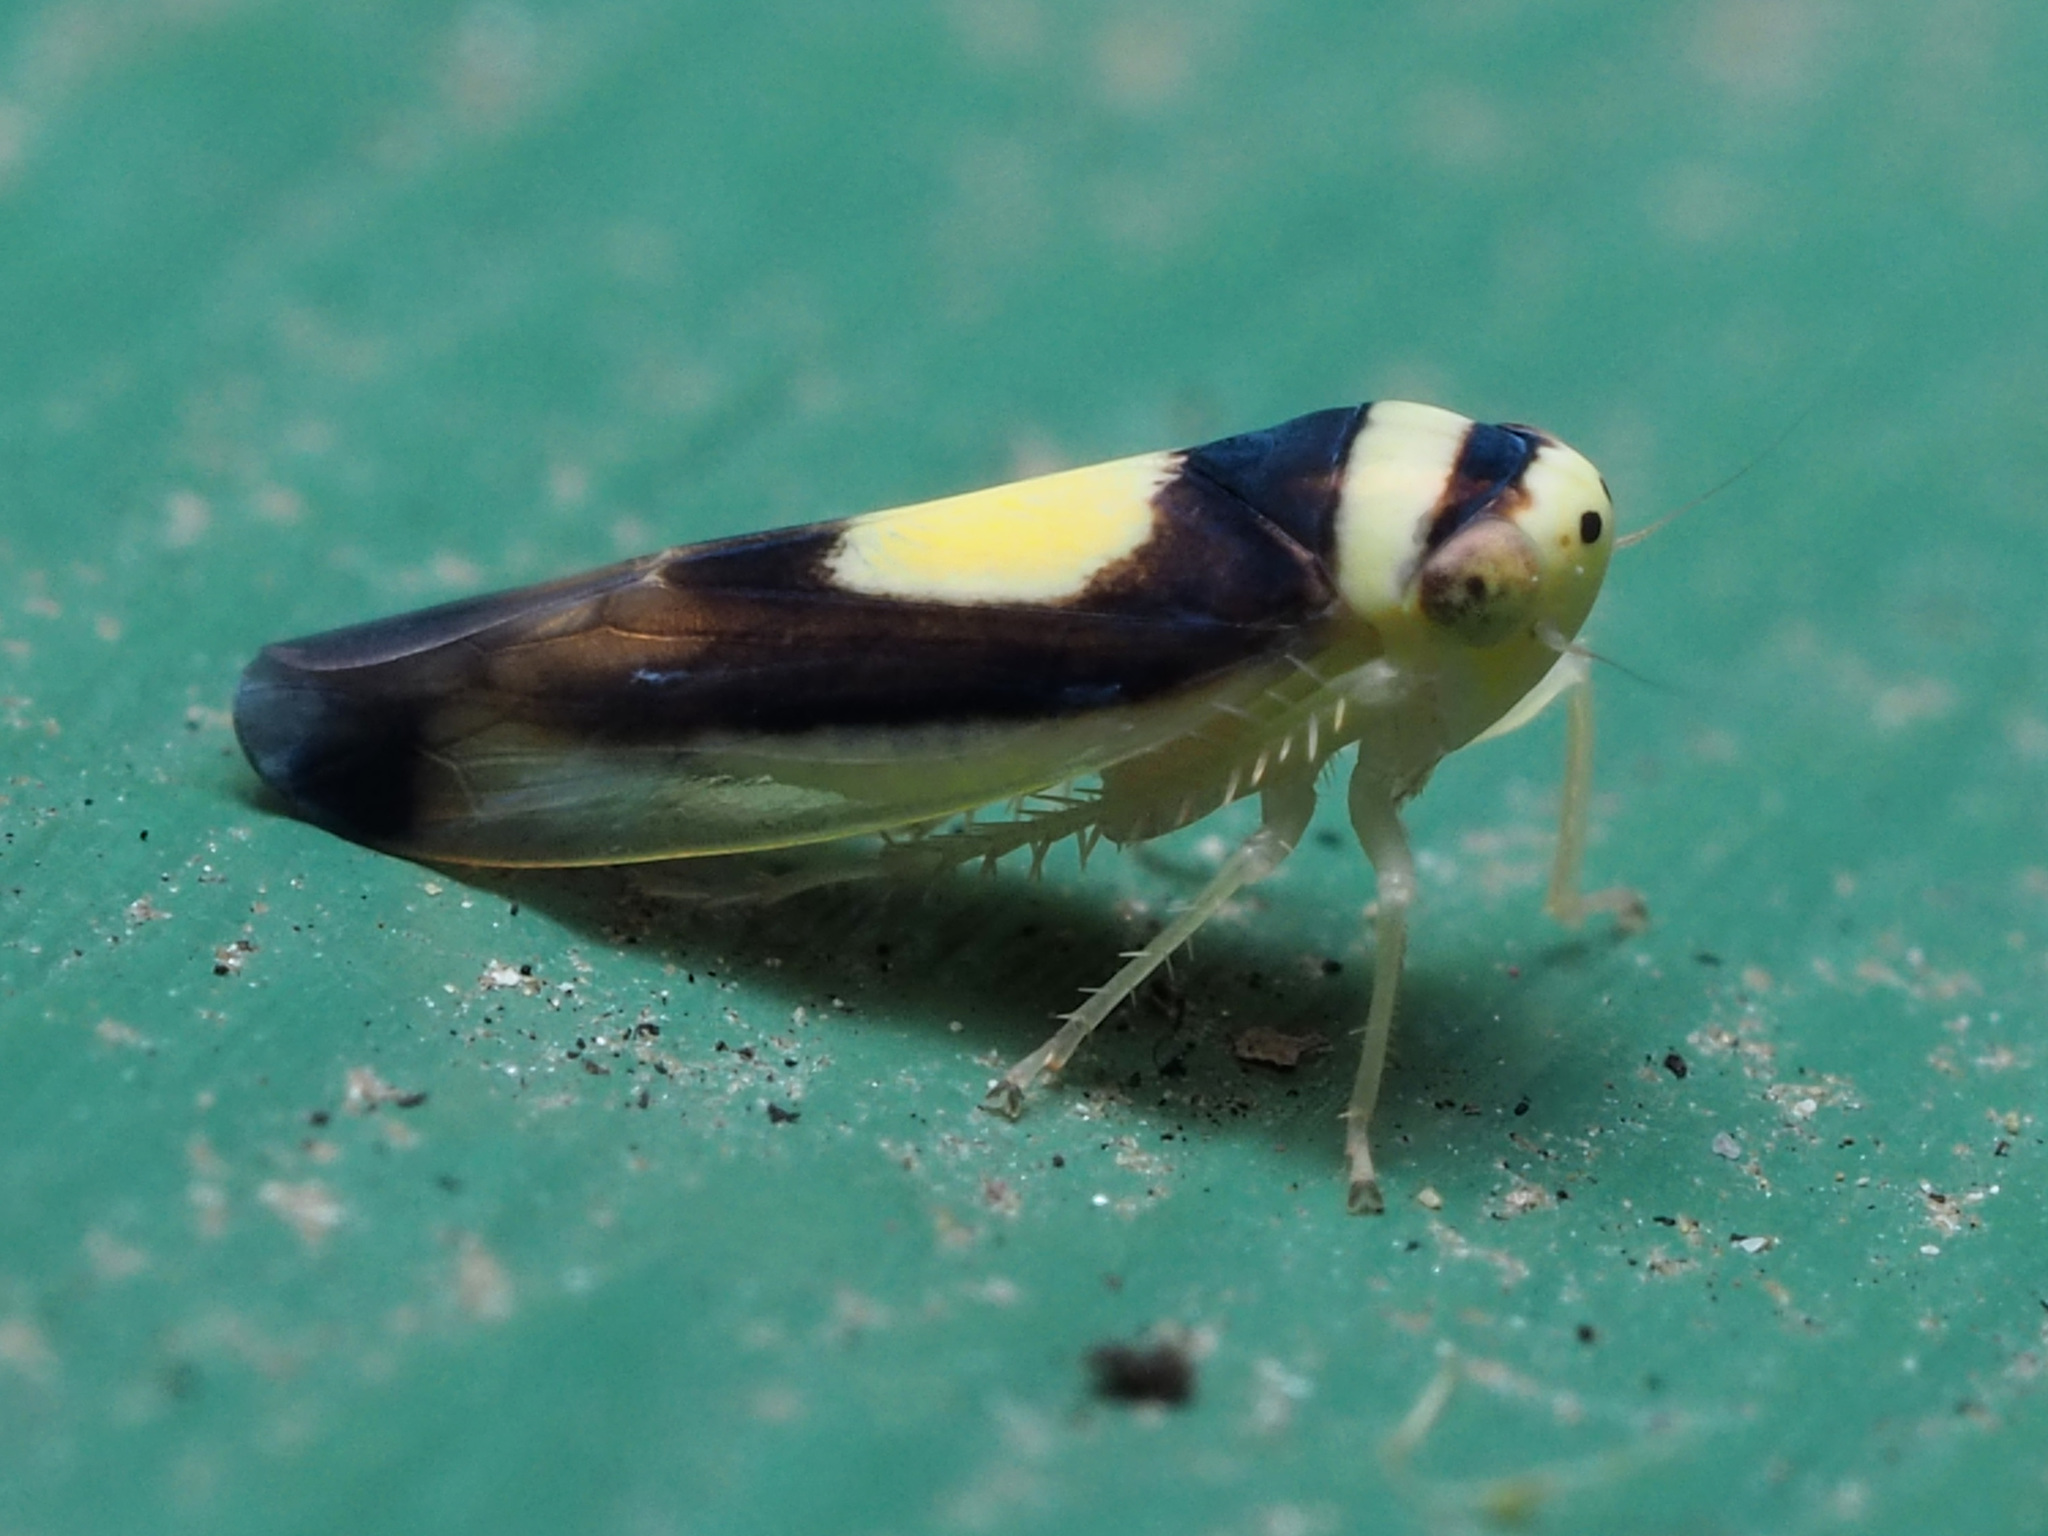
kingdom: Animalia
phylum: Arthropoda
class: Insecta
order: Hemiptera
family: Cicadellidae
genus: Colladonus
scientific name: Colladonus clitellarius
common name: The saddleback leafhopper
